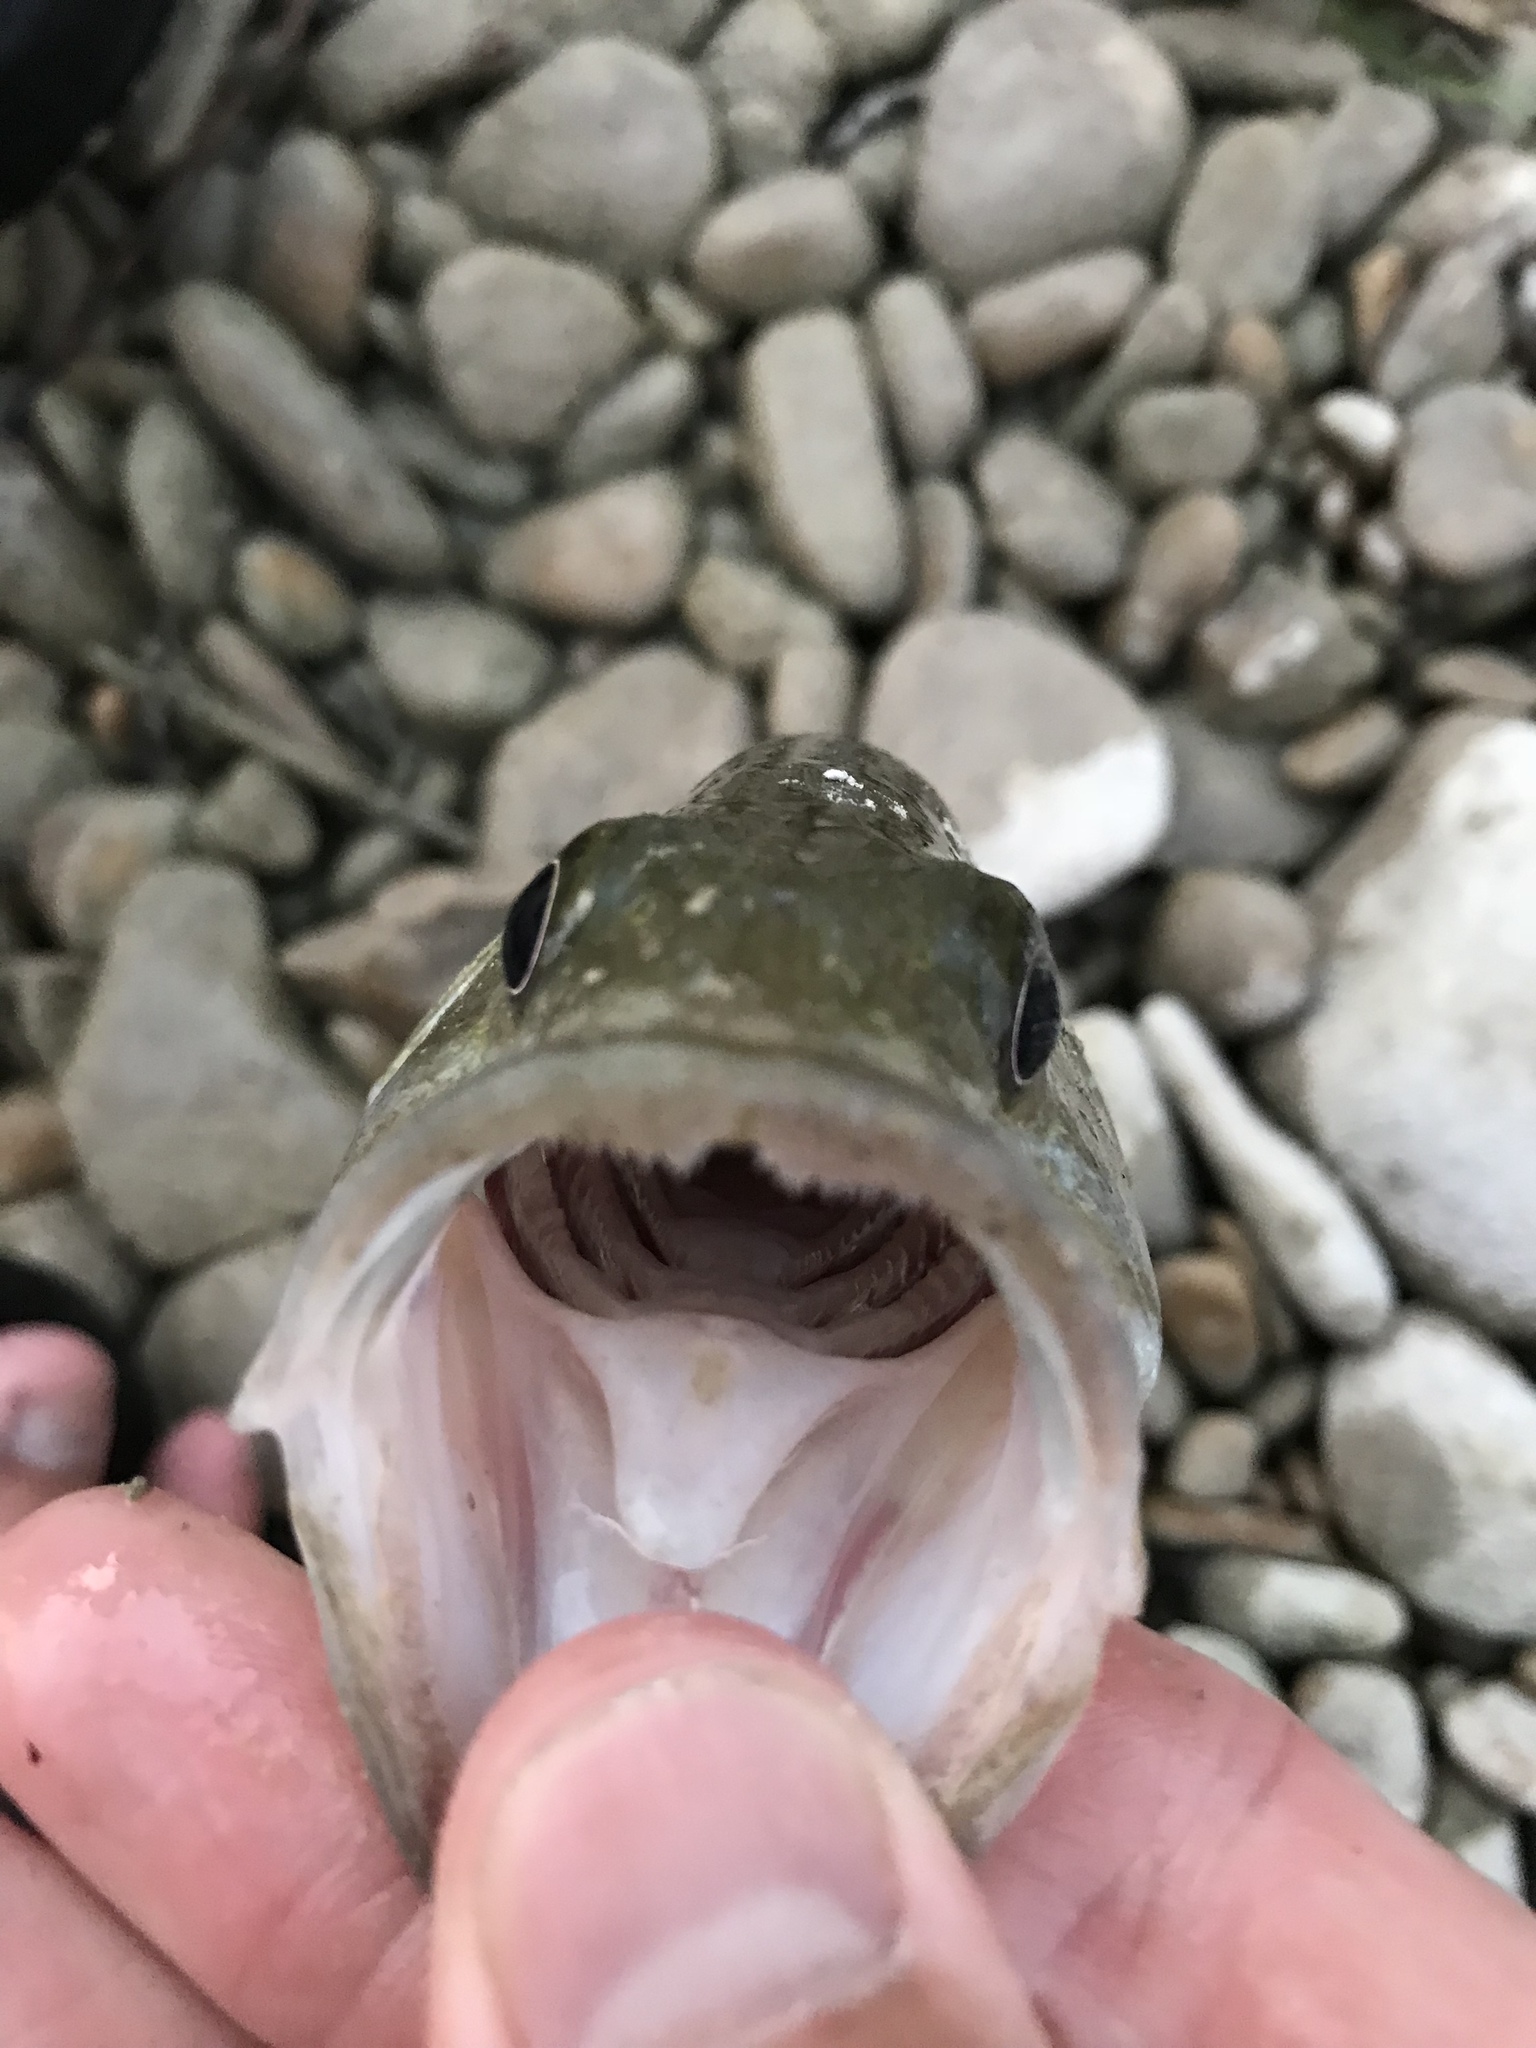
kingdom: Animalia
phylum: Chordata
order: Perciformes
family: Centrarchidae
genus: Micropterus
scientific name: Micropterus treculii
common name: Guadalupe bass
